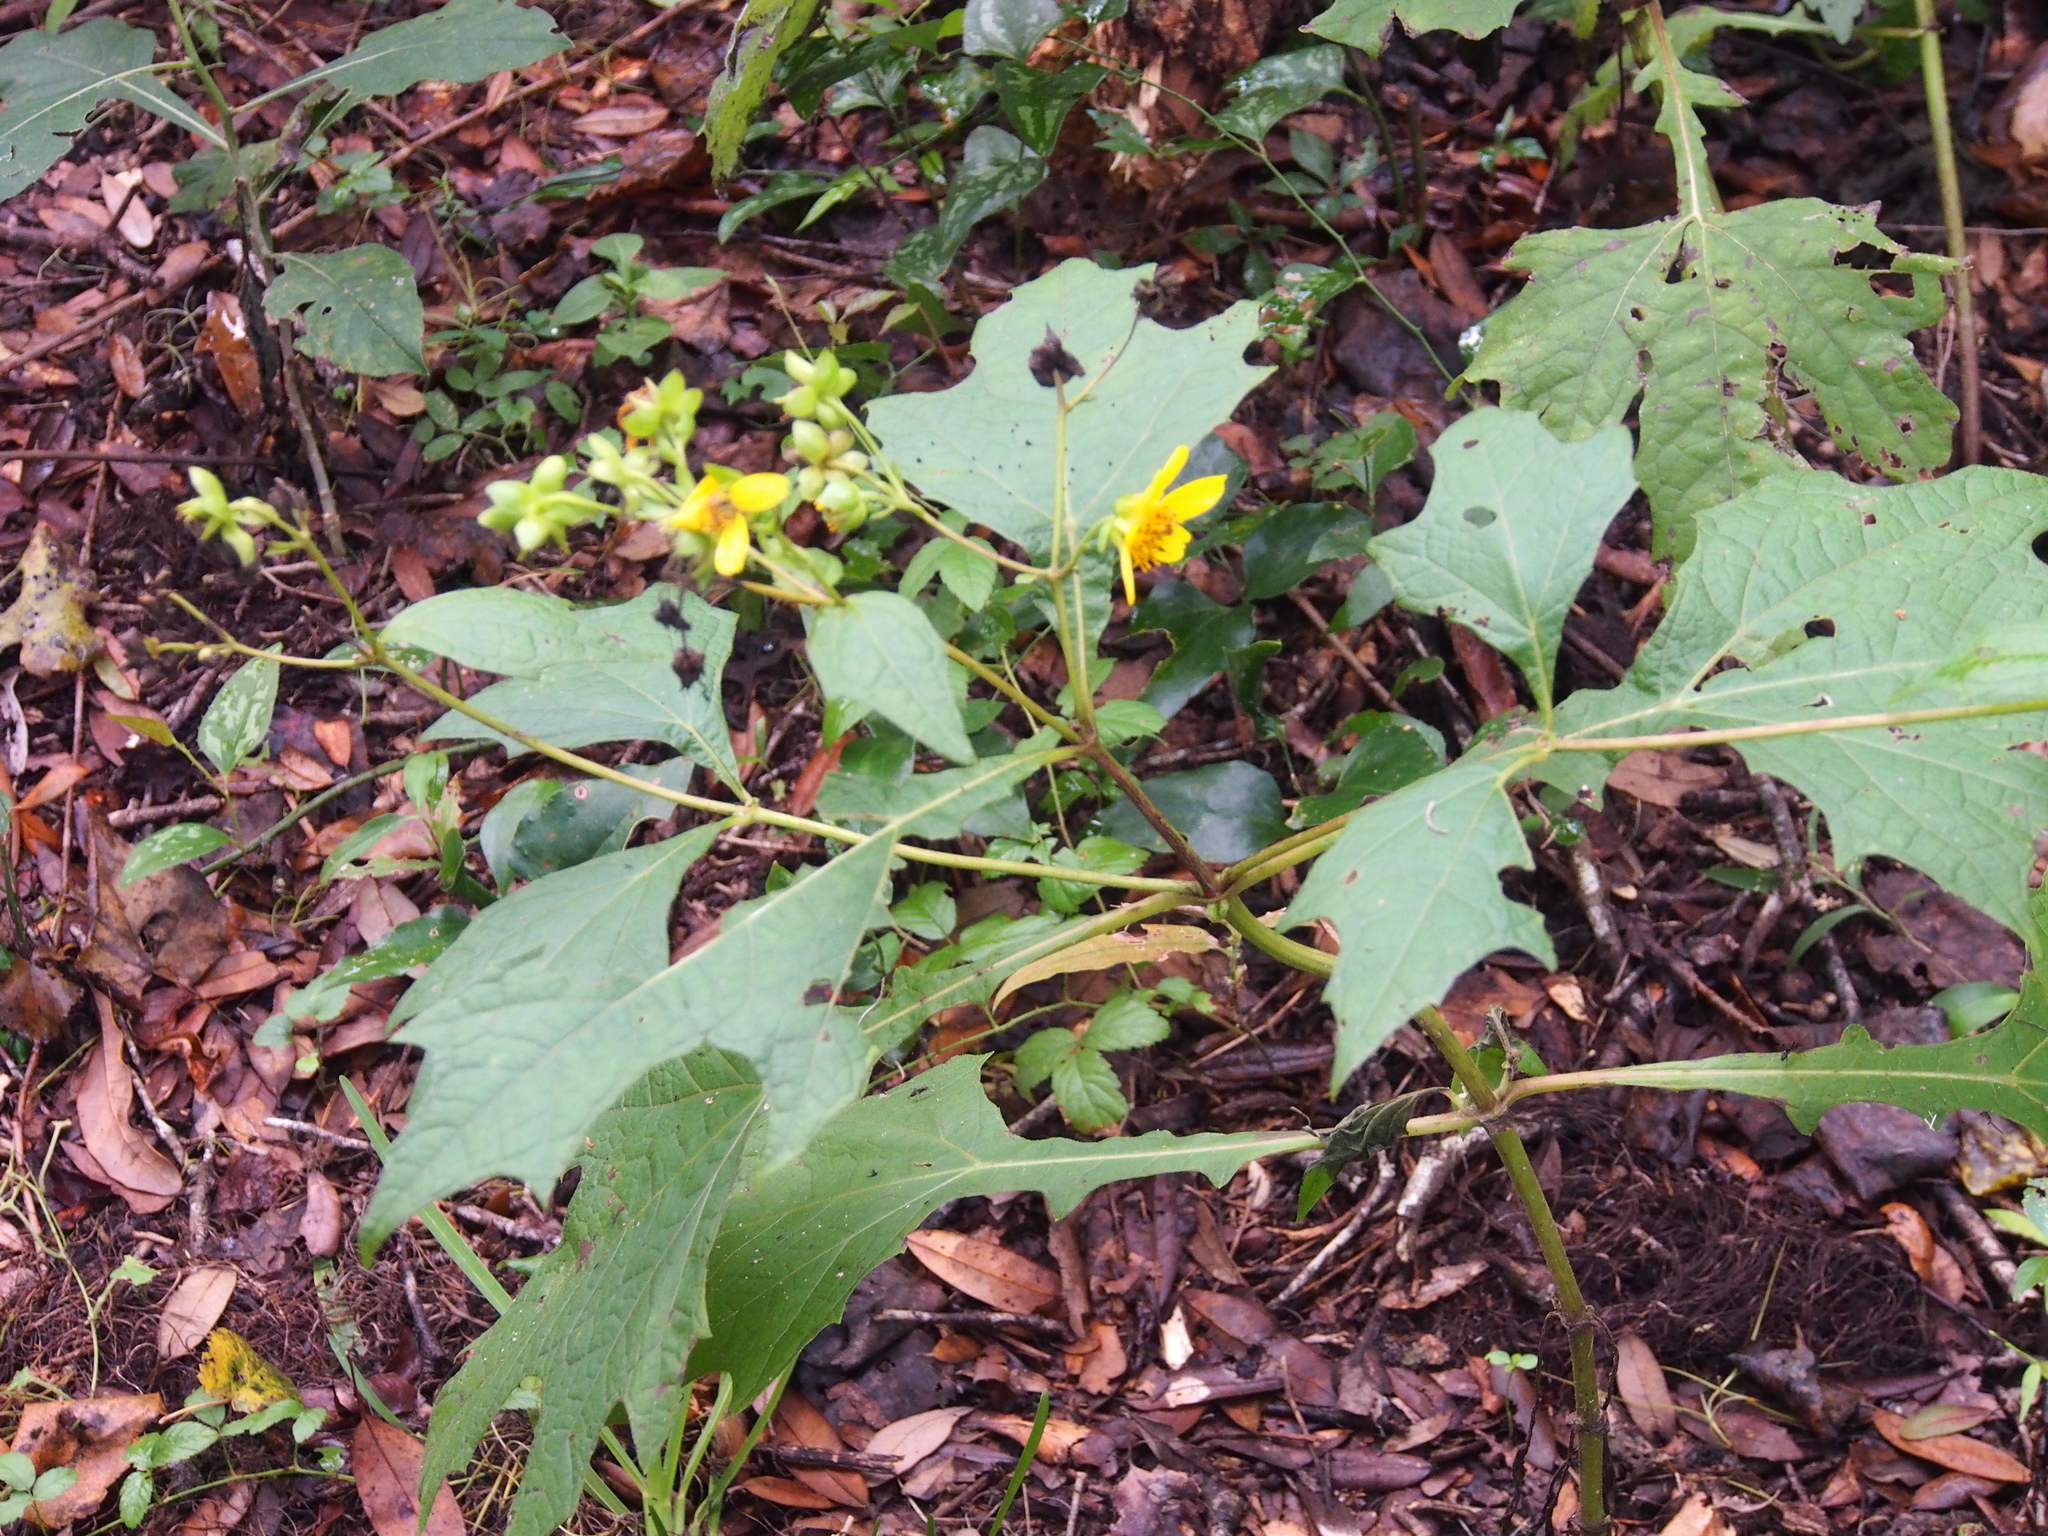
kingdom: Plantae
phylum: Tracheophyta
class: Magnoliopsida
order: Asterales
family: Asteraceae
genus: Smallanthus
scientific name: Smallanthus uvedalia
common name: Bear's-foot
